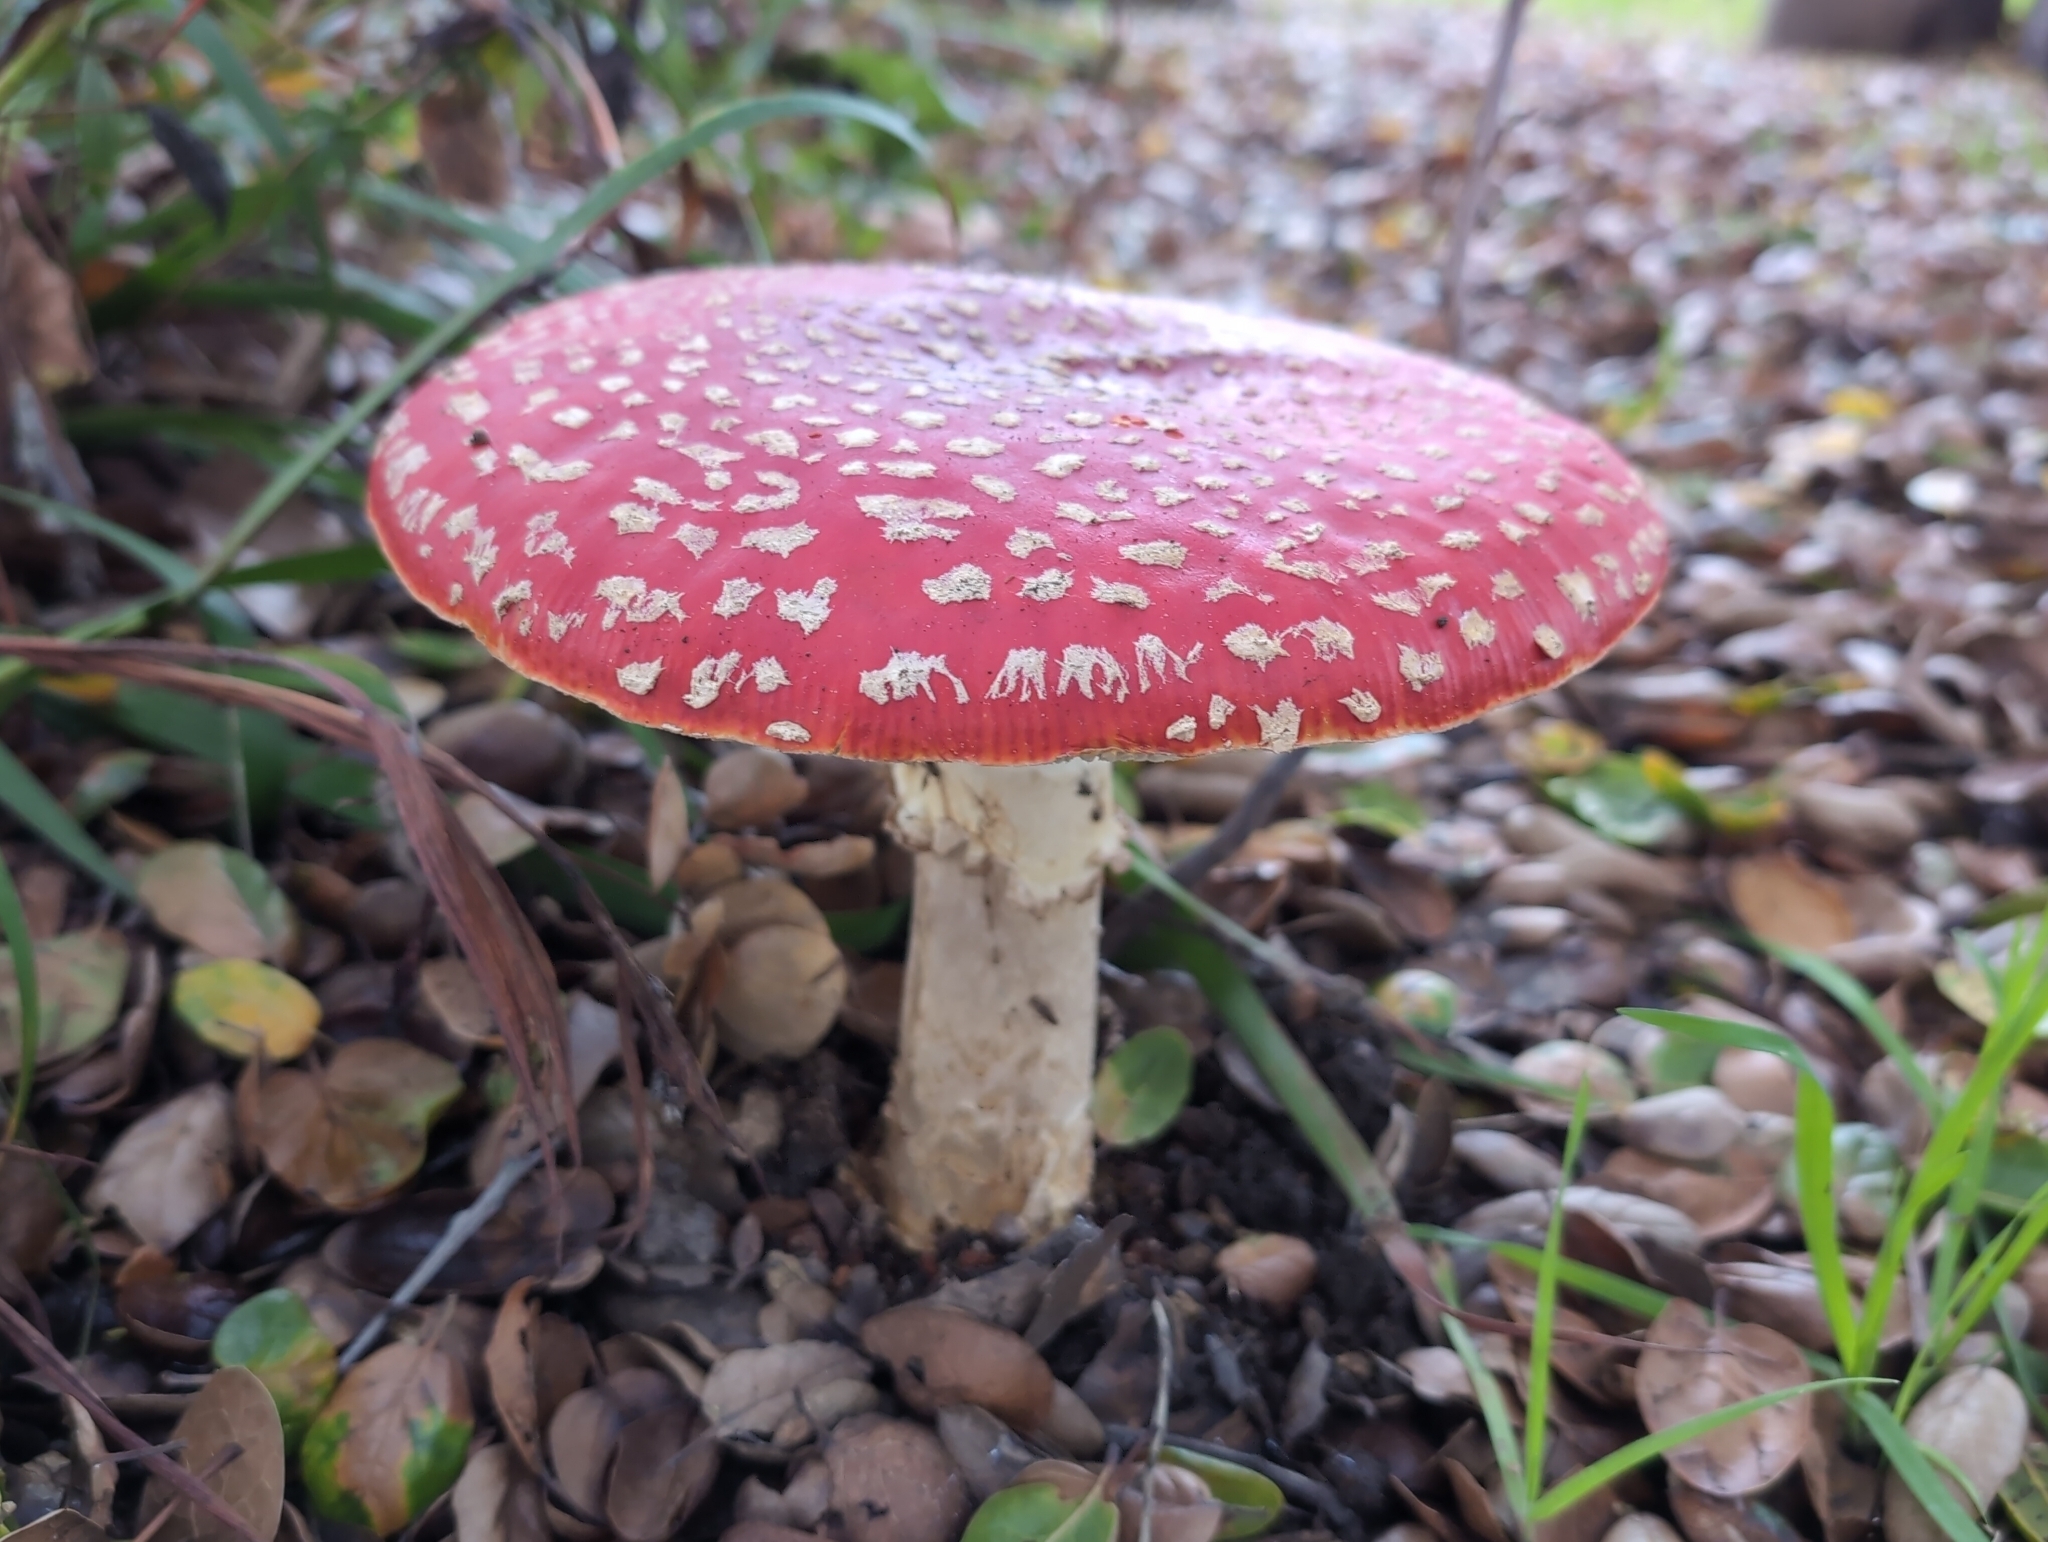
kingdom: Fungi
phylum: Basidiomycota
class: Agaricomycetes
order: Agaricales
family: Amanitaceae
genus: Amanita
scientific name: Amanita muscaria
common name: Fly agaric
